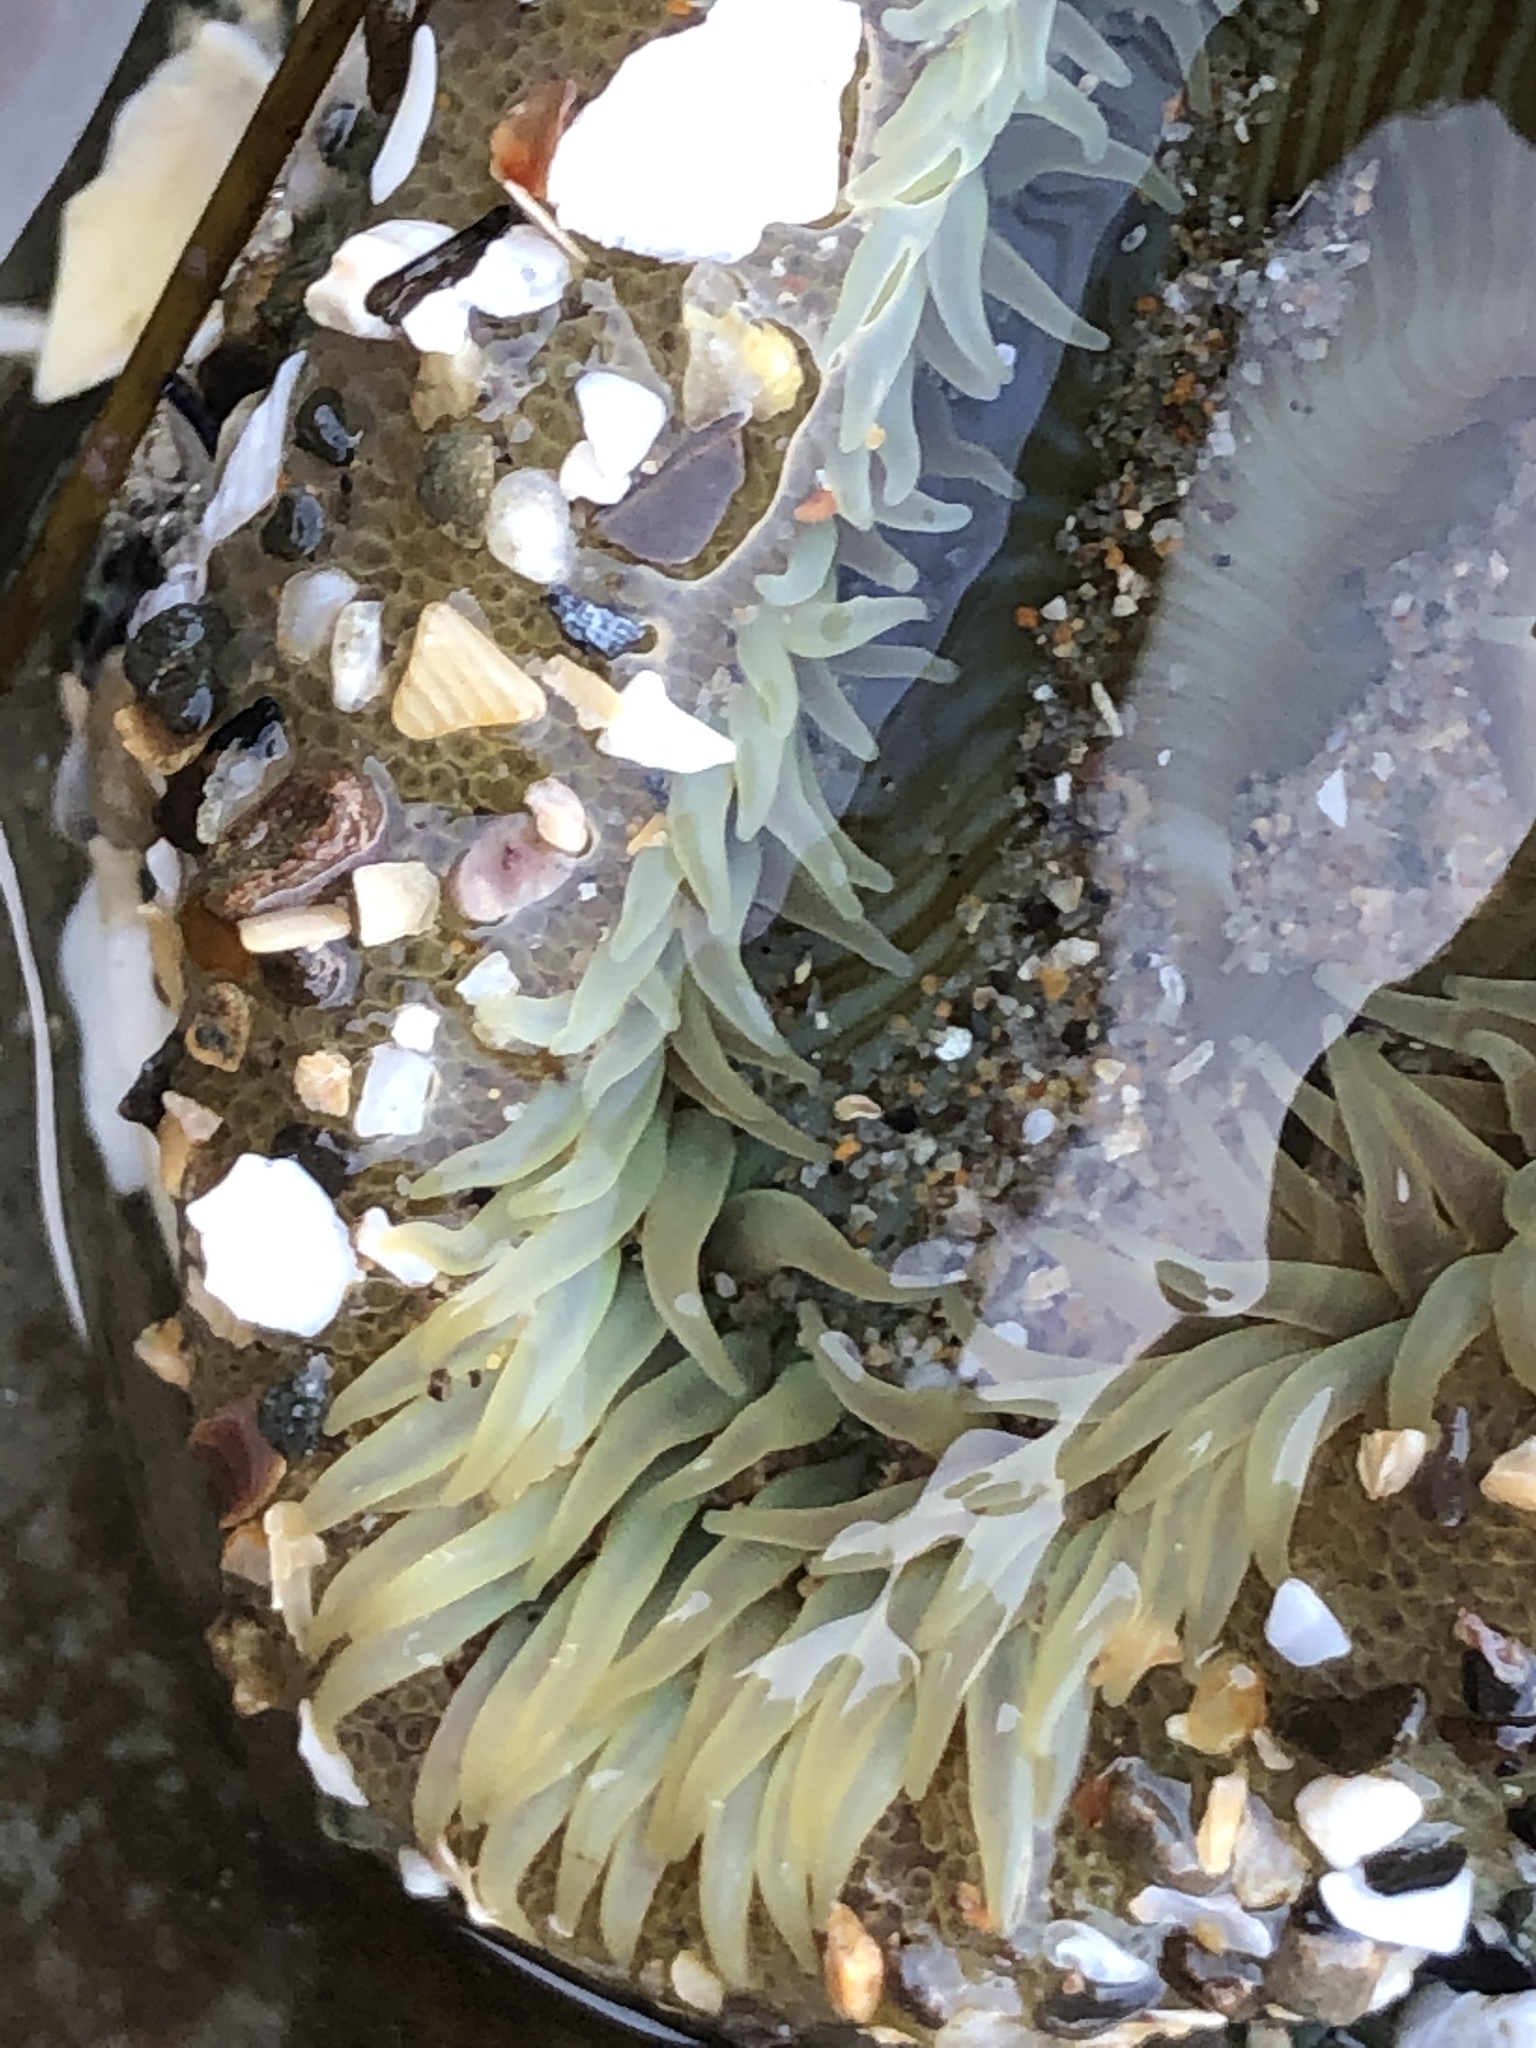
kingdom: Animalia
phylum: Cnidaria
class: Anthozoa
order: Actiniaria
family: Actiniidae
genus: Anthopleura
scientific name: Anthopleura sola
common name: Sun anemone
